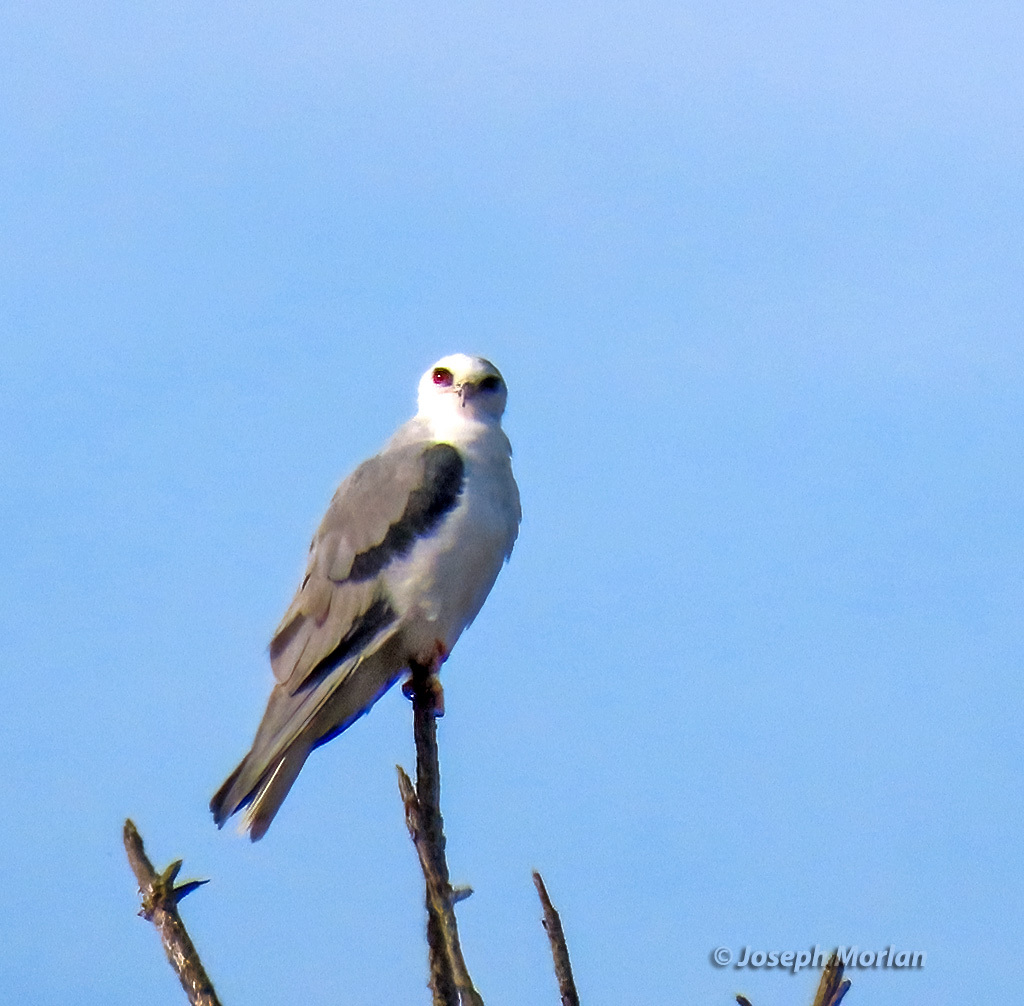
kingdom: Animalia
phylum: Chordata
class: Aves
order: Accipitriformes
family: Accipitridae
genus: Elanus
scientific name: Elanus leucurus
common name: White-tailed kite
